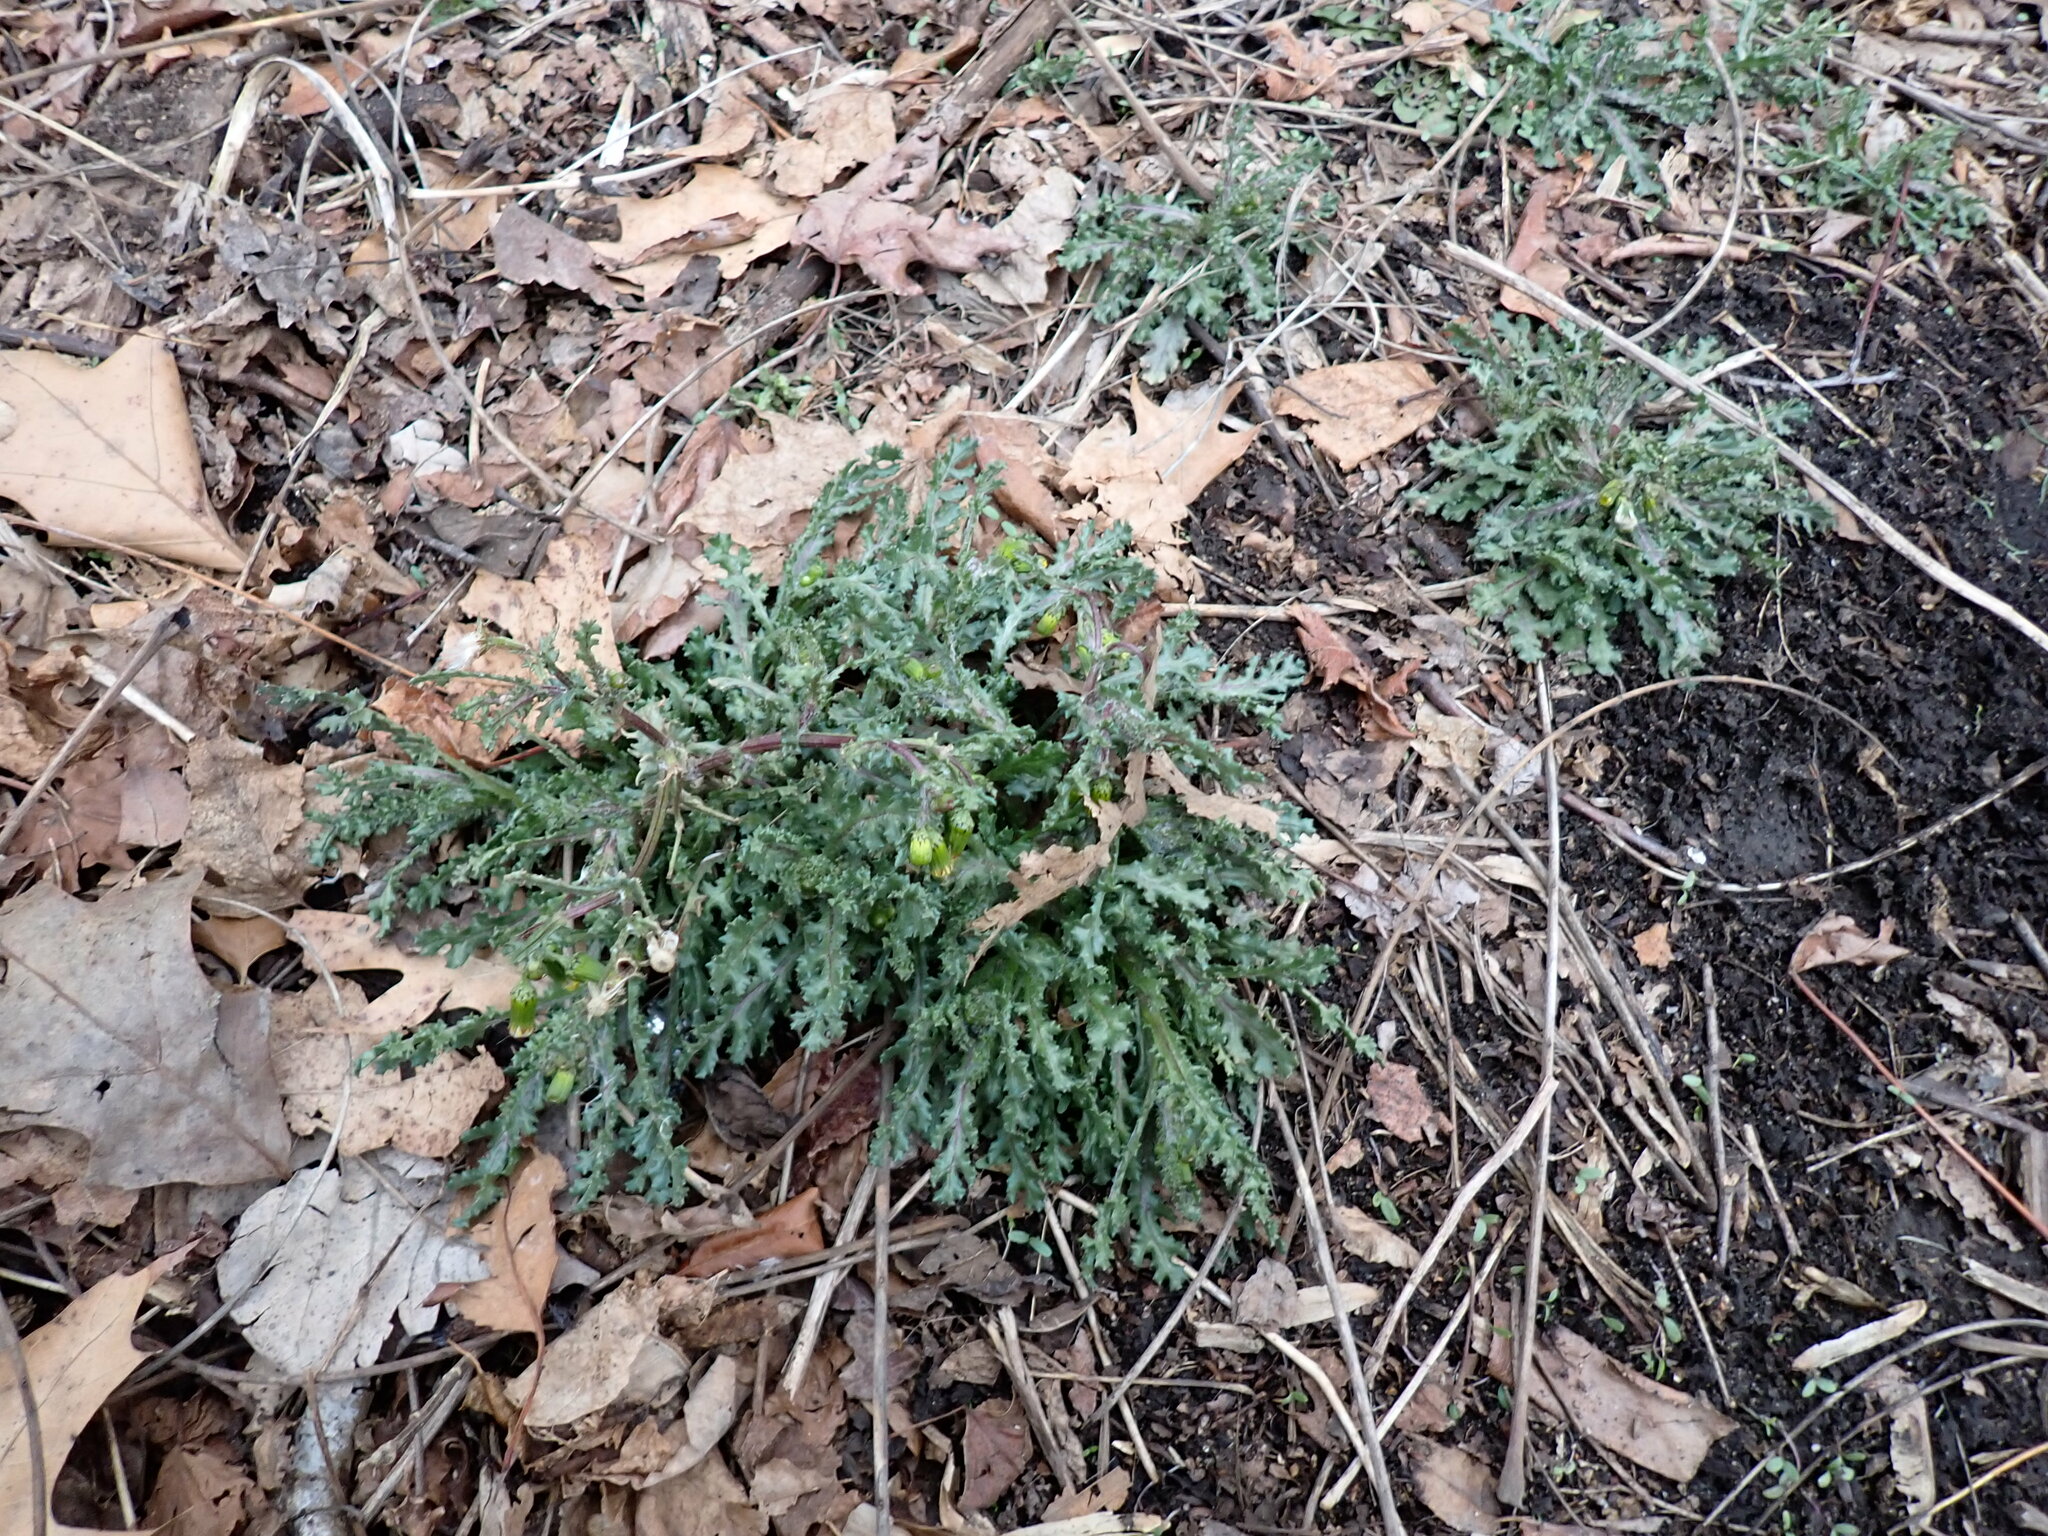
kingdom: Plantae
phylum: Tracheophyta
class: Magnoliopsida
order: Asterales
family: Asteraceae
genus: Senecio
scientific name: Senecio vulgaris
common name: Old-man-in-the-spring
